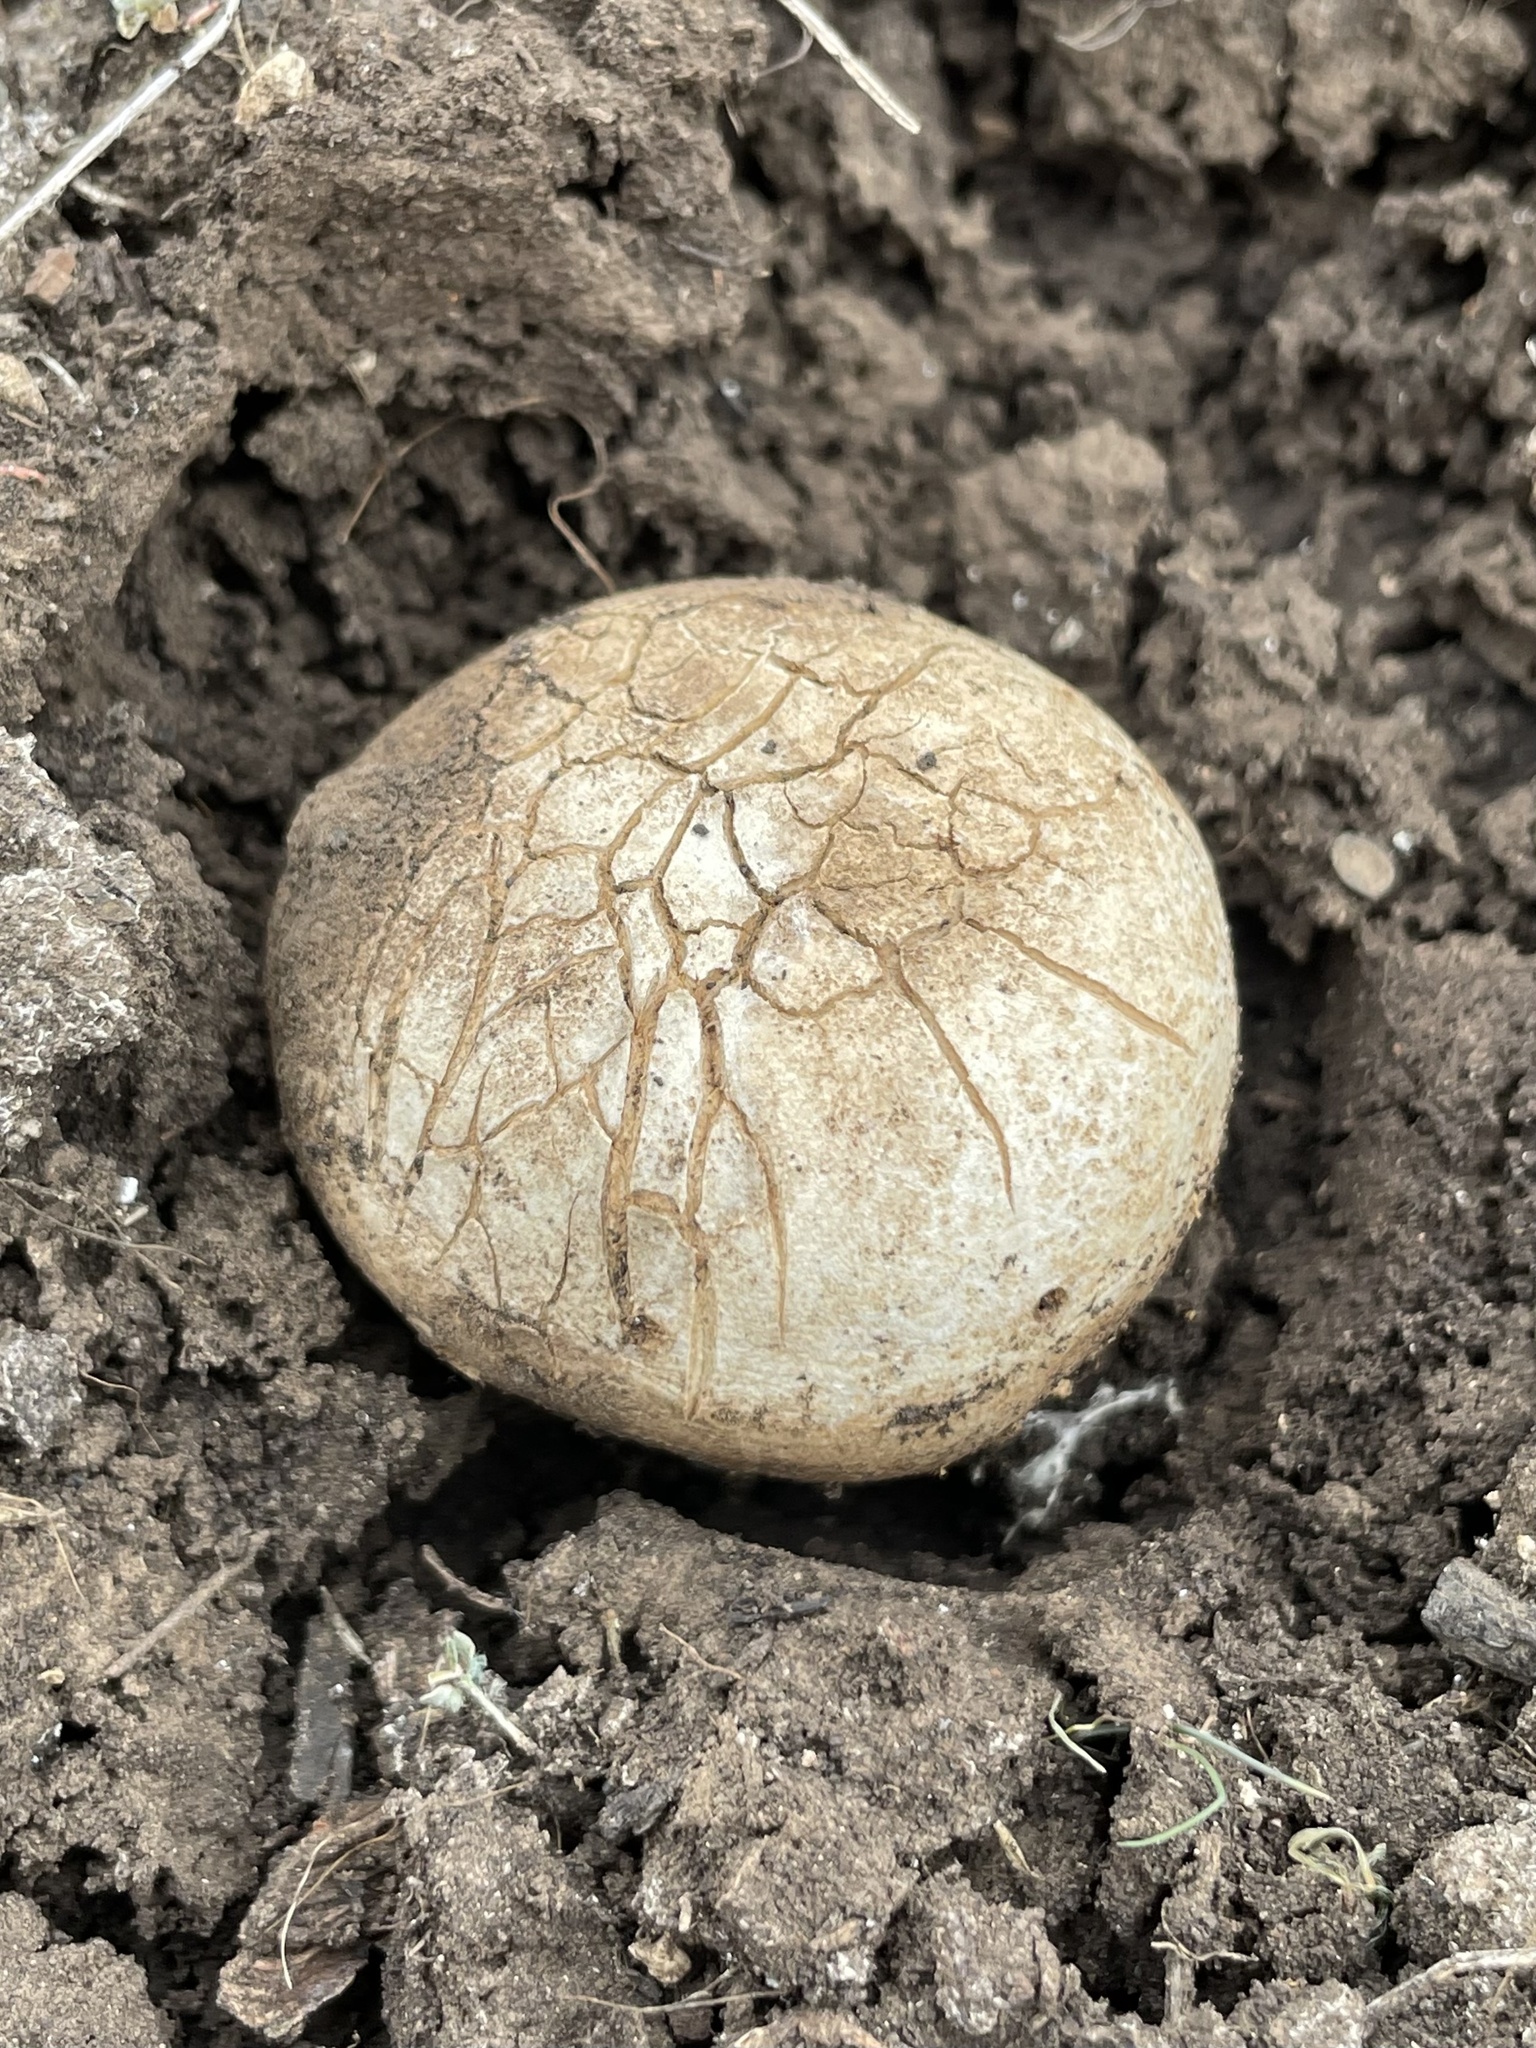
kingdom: Fungi
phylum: Basidiomycota
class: Agaricomycetes
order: Boletales
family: Sclerodermataceae
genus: Scleroderma
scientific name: Scleroderma cepa
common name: Onion earthball
